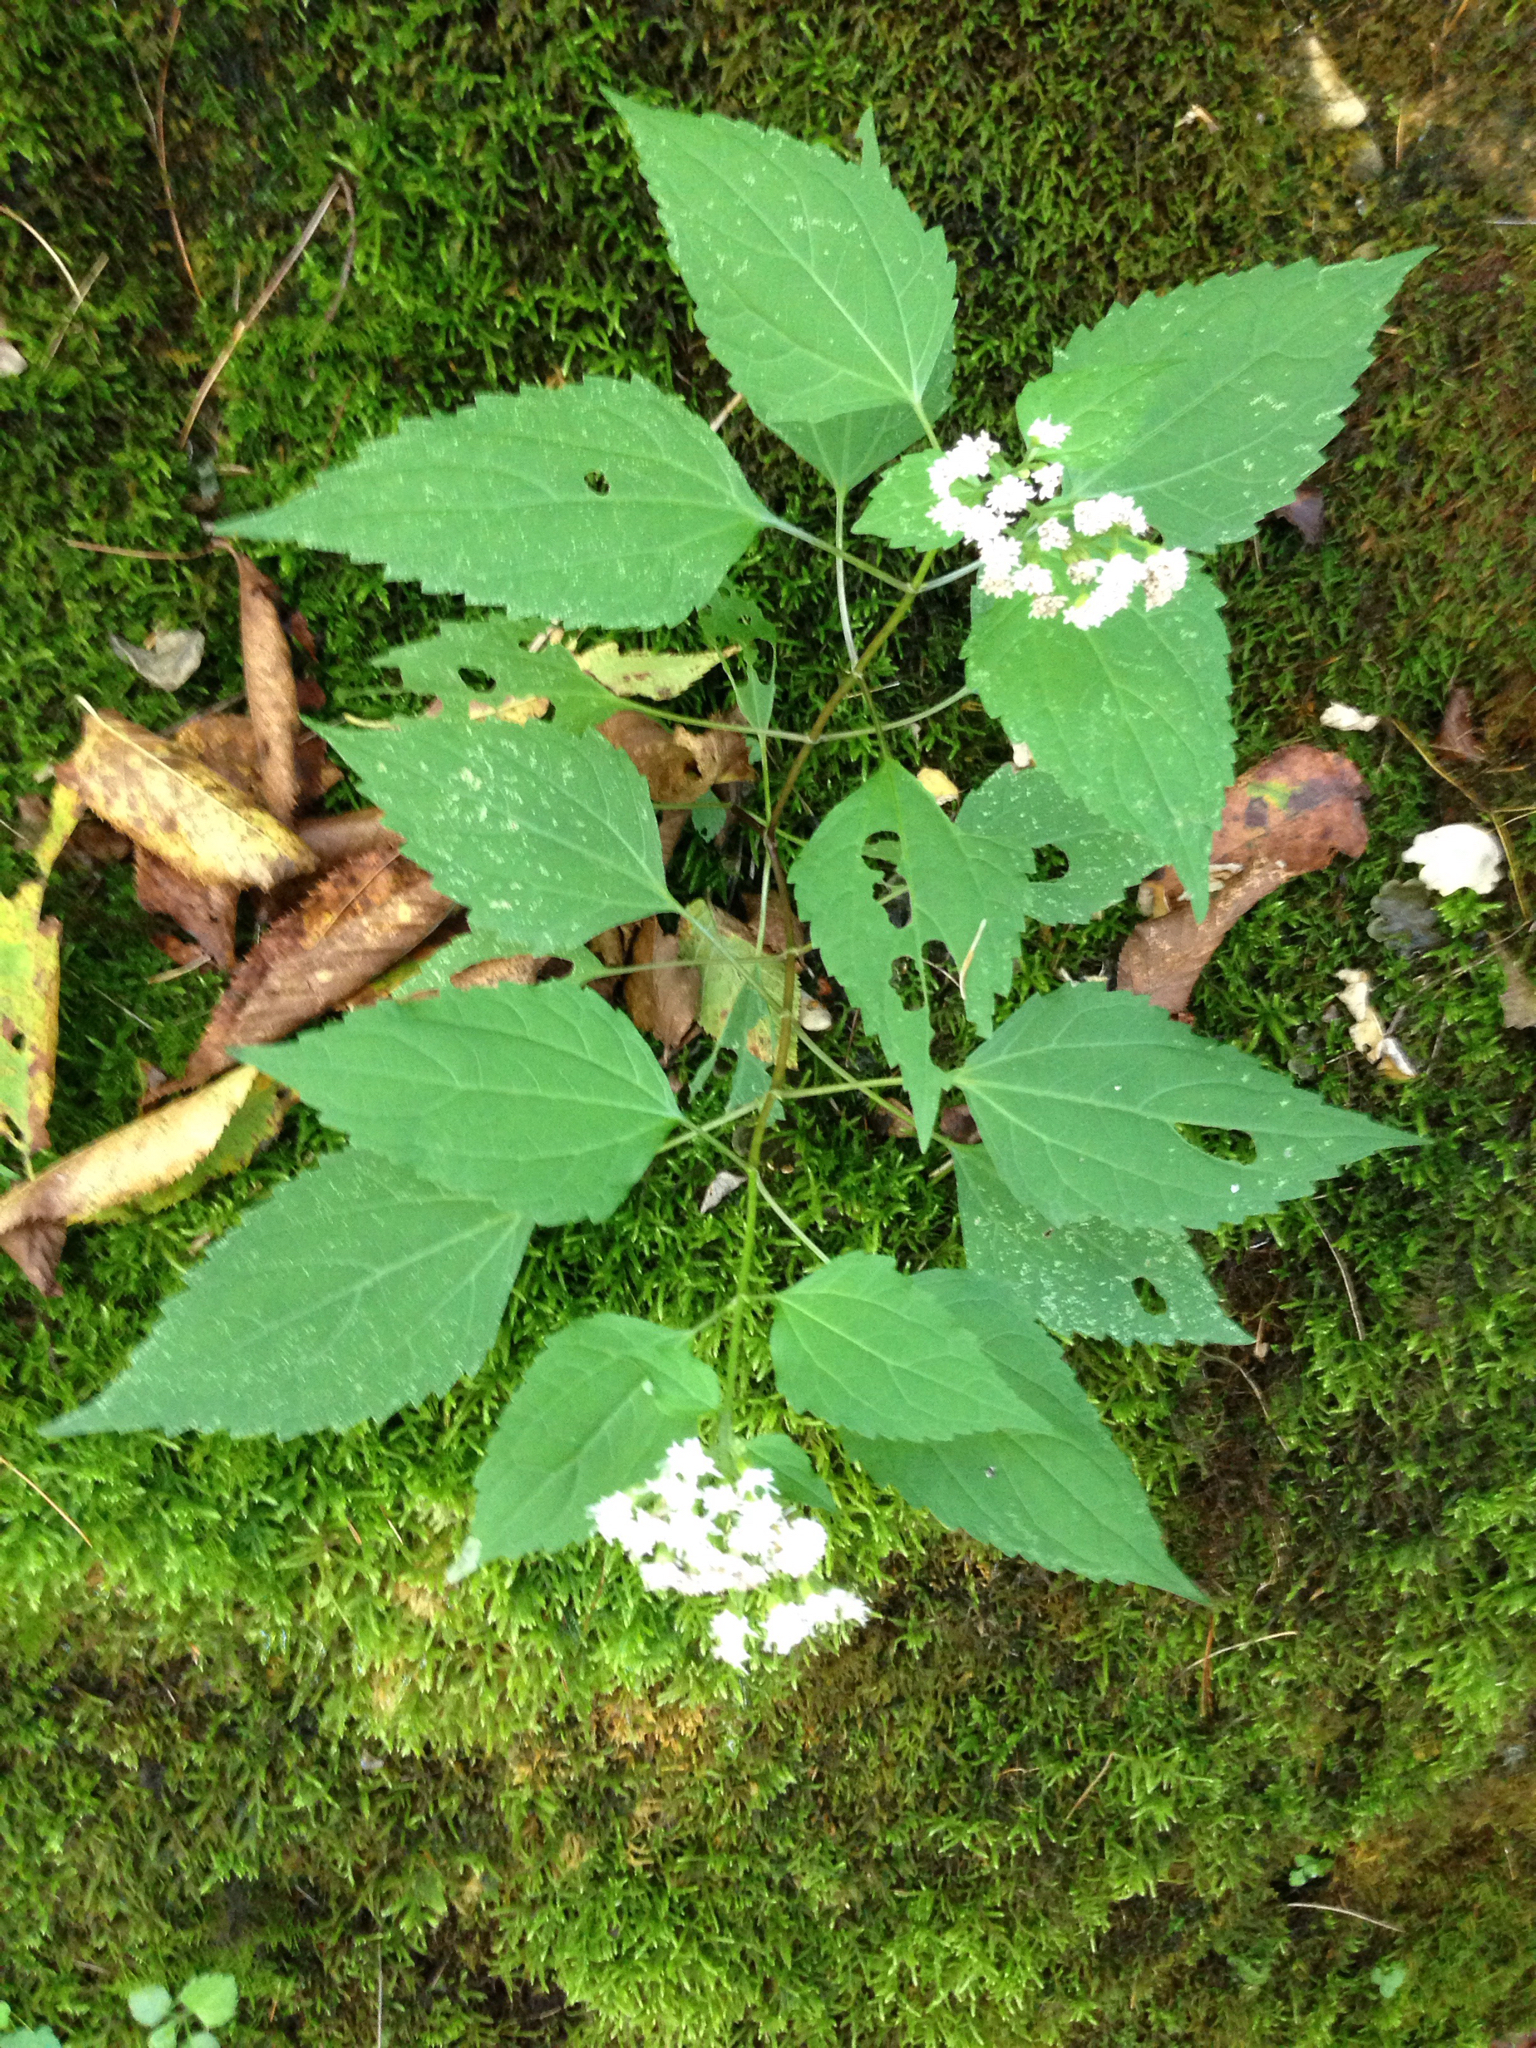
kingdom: Plantae
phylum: Tracheophyta
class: Magnoliopsida
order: Asterales
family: Asteraceae
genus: Ageratina
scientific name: Ageratina altissima
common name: White snakeroot
